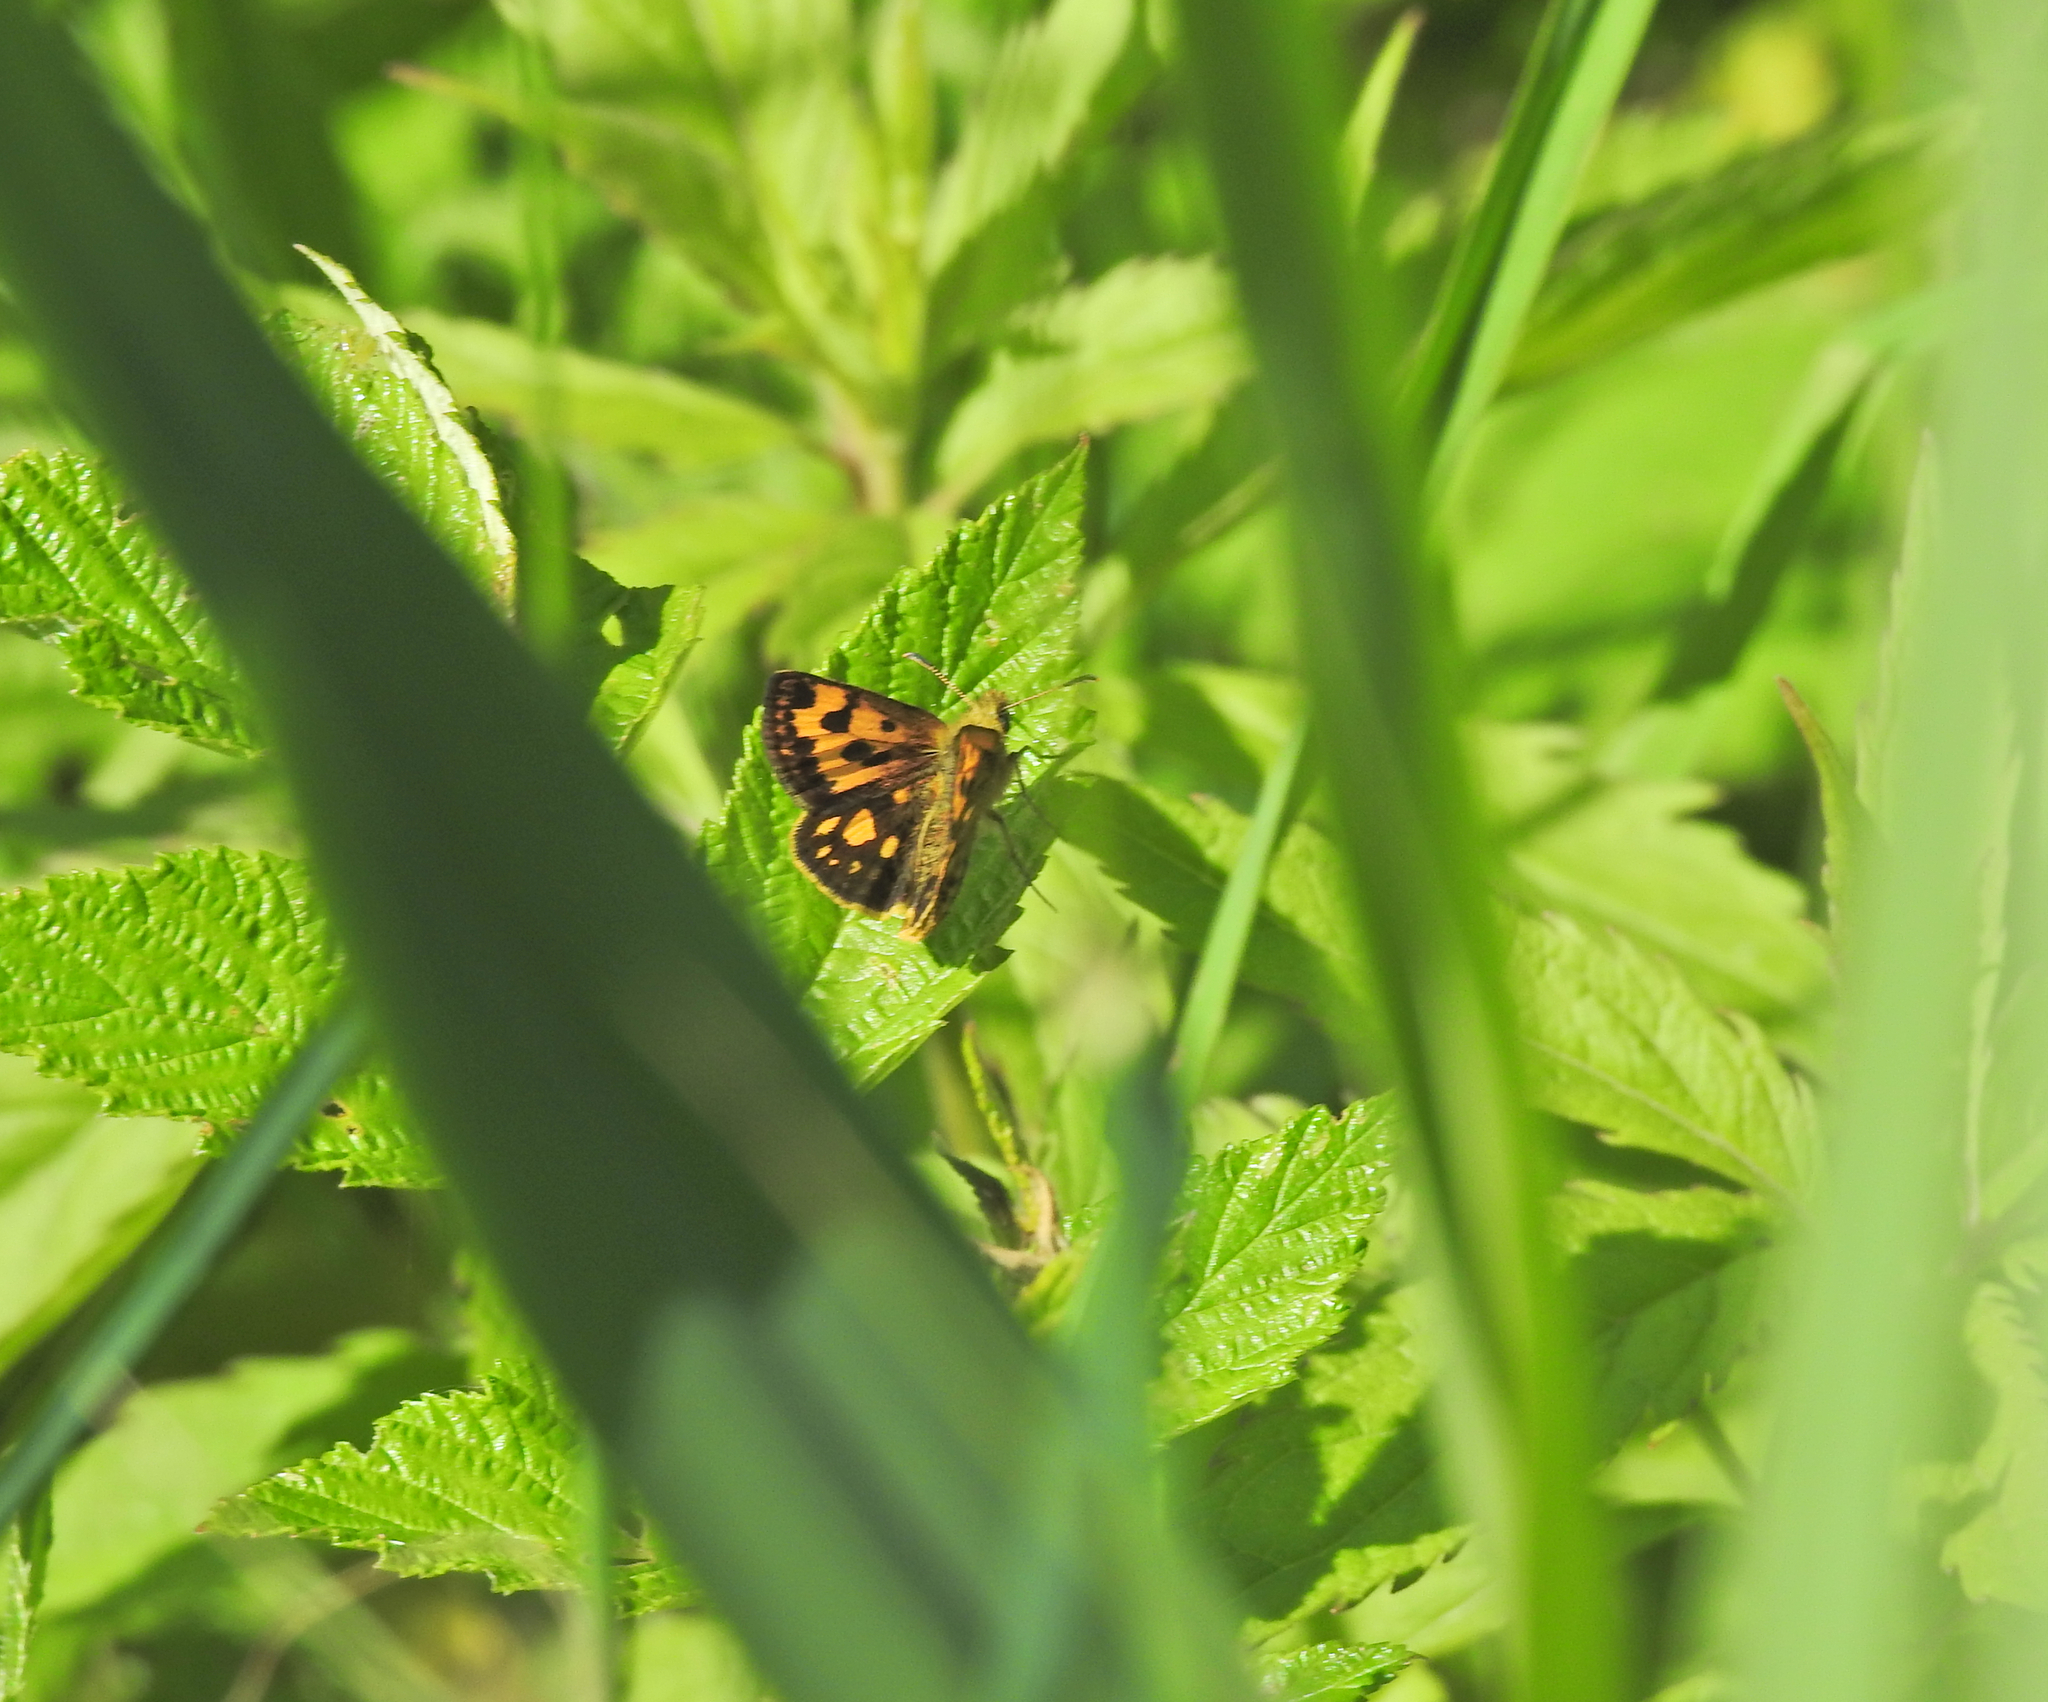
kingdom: Animalia
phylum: Arthropoda
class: Insecta
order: Lepidoptera
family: Hesperiidae
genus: Carterocephalus
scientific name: Carterocephalus silvicola
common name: Northern chequered skipper
